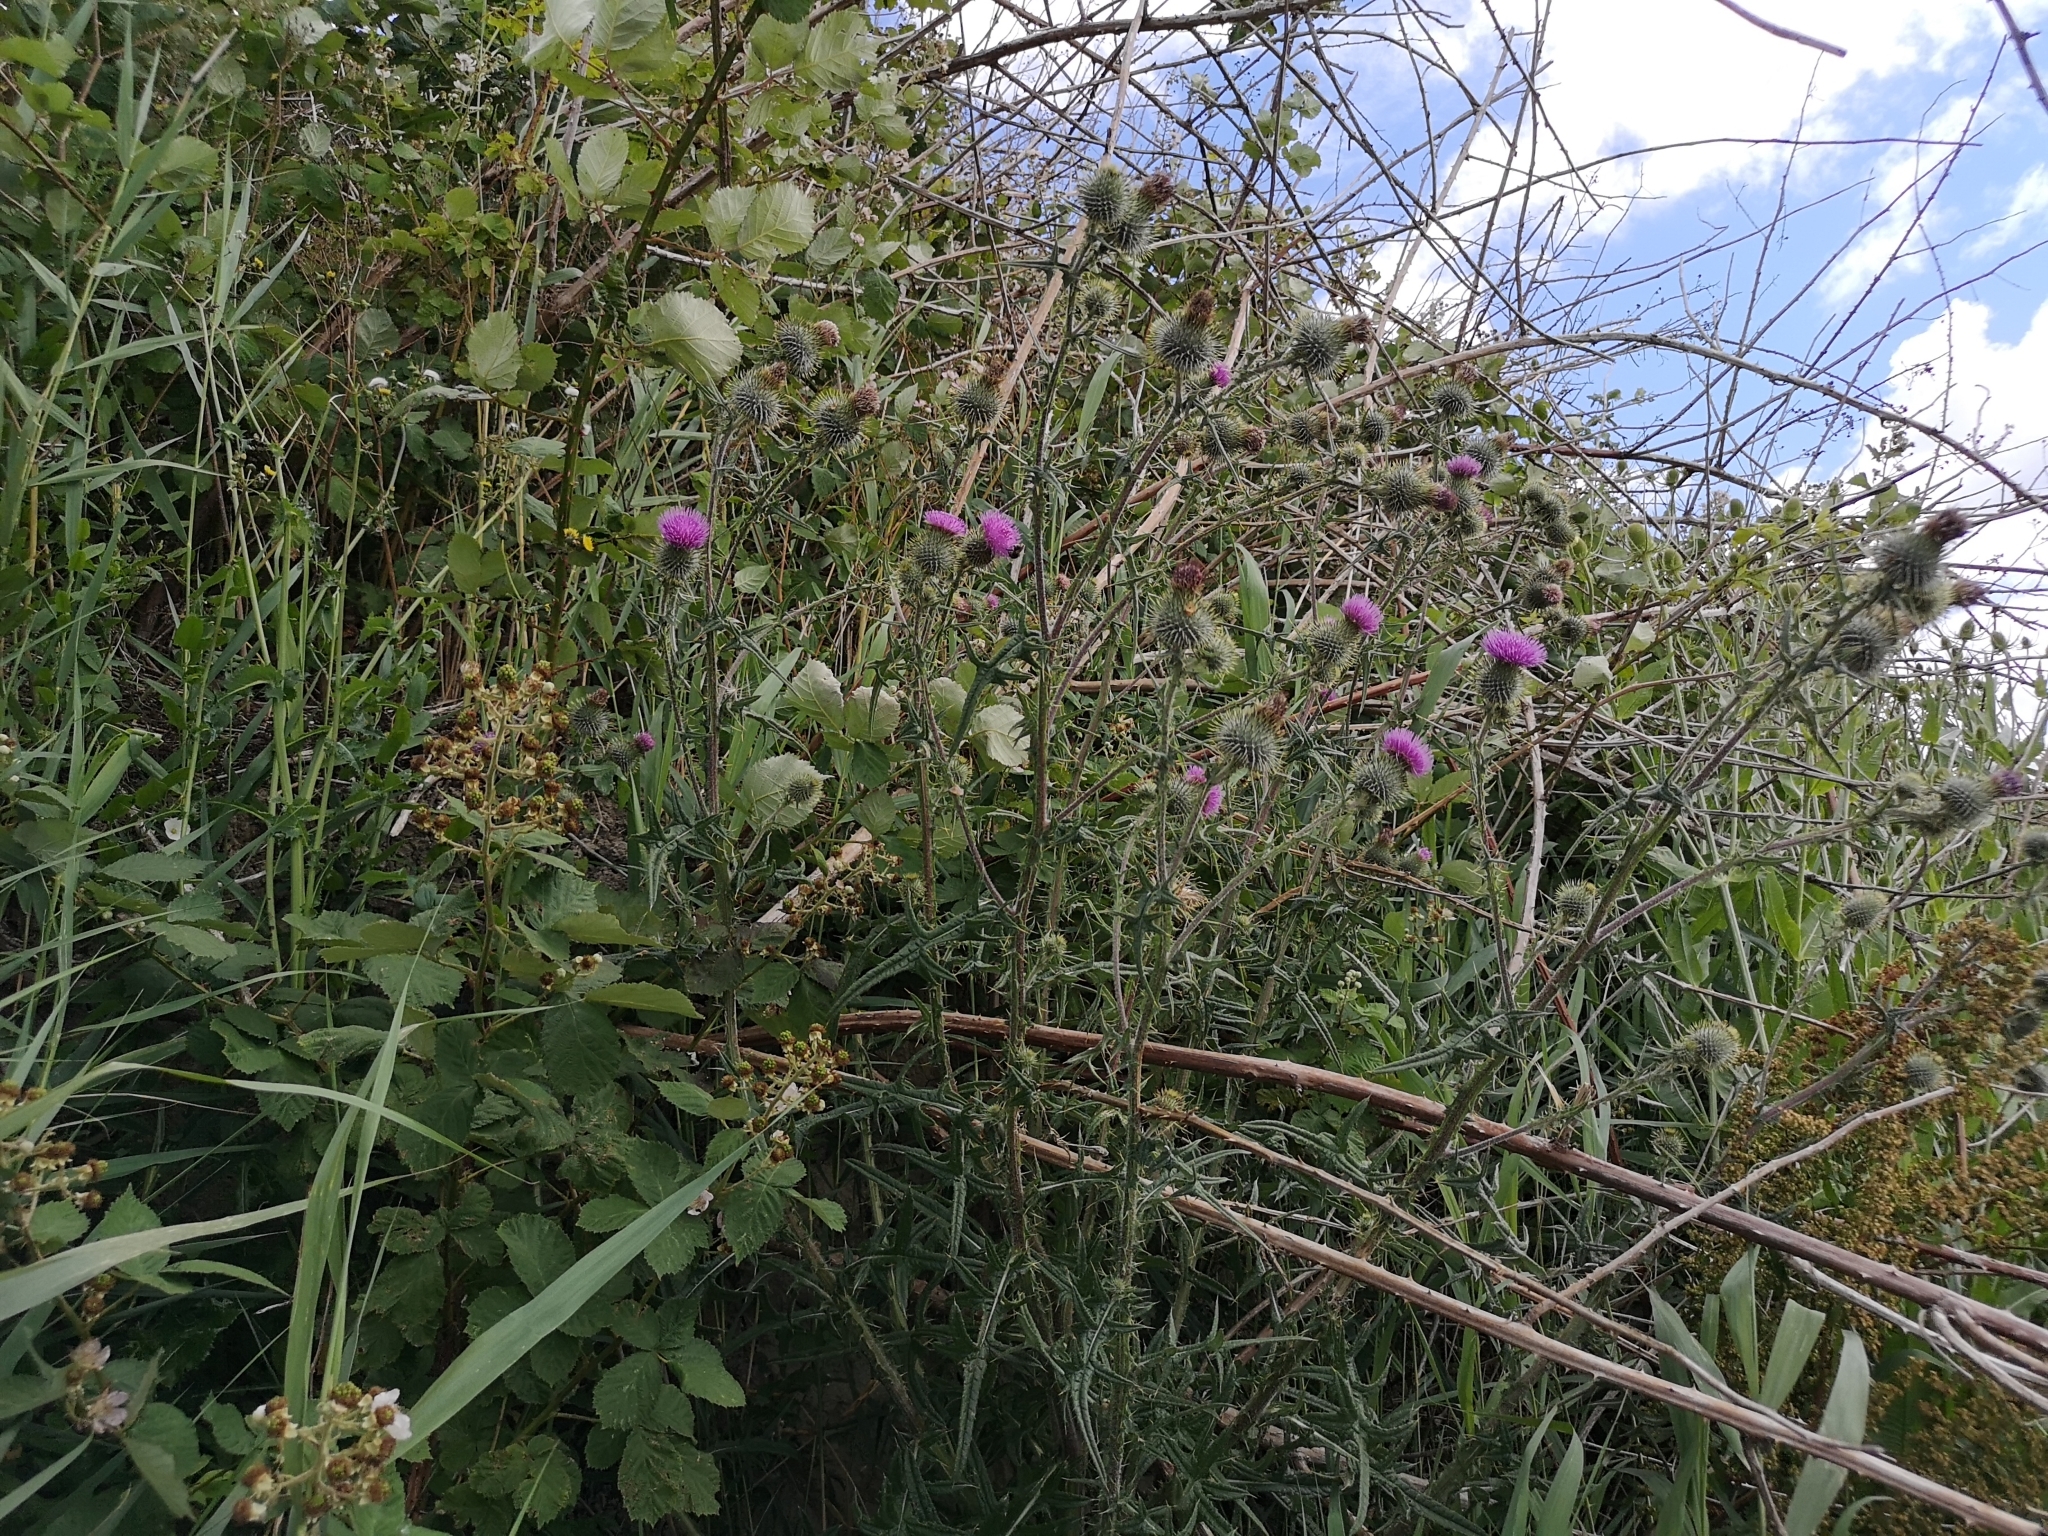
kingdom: Plantae
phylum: Tracheophyta
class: Magnoliopsida
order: Asterales
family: Asteraceae
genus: Cirsium
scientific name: Cirsium vulgare
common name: Bull thistle
